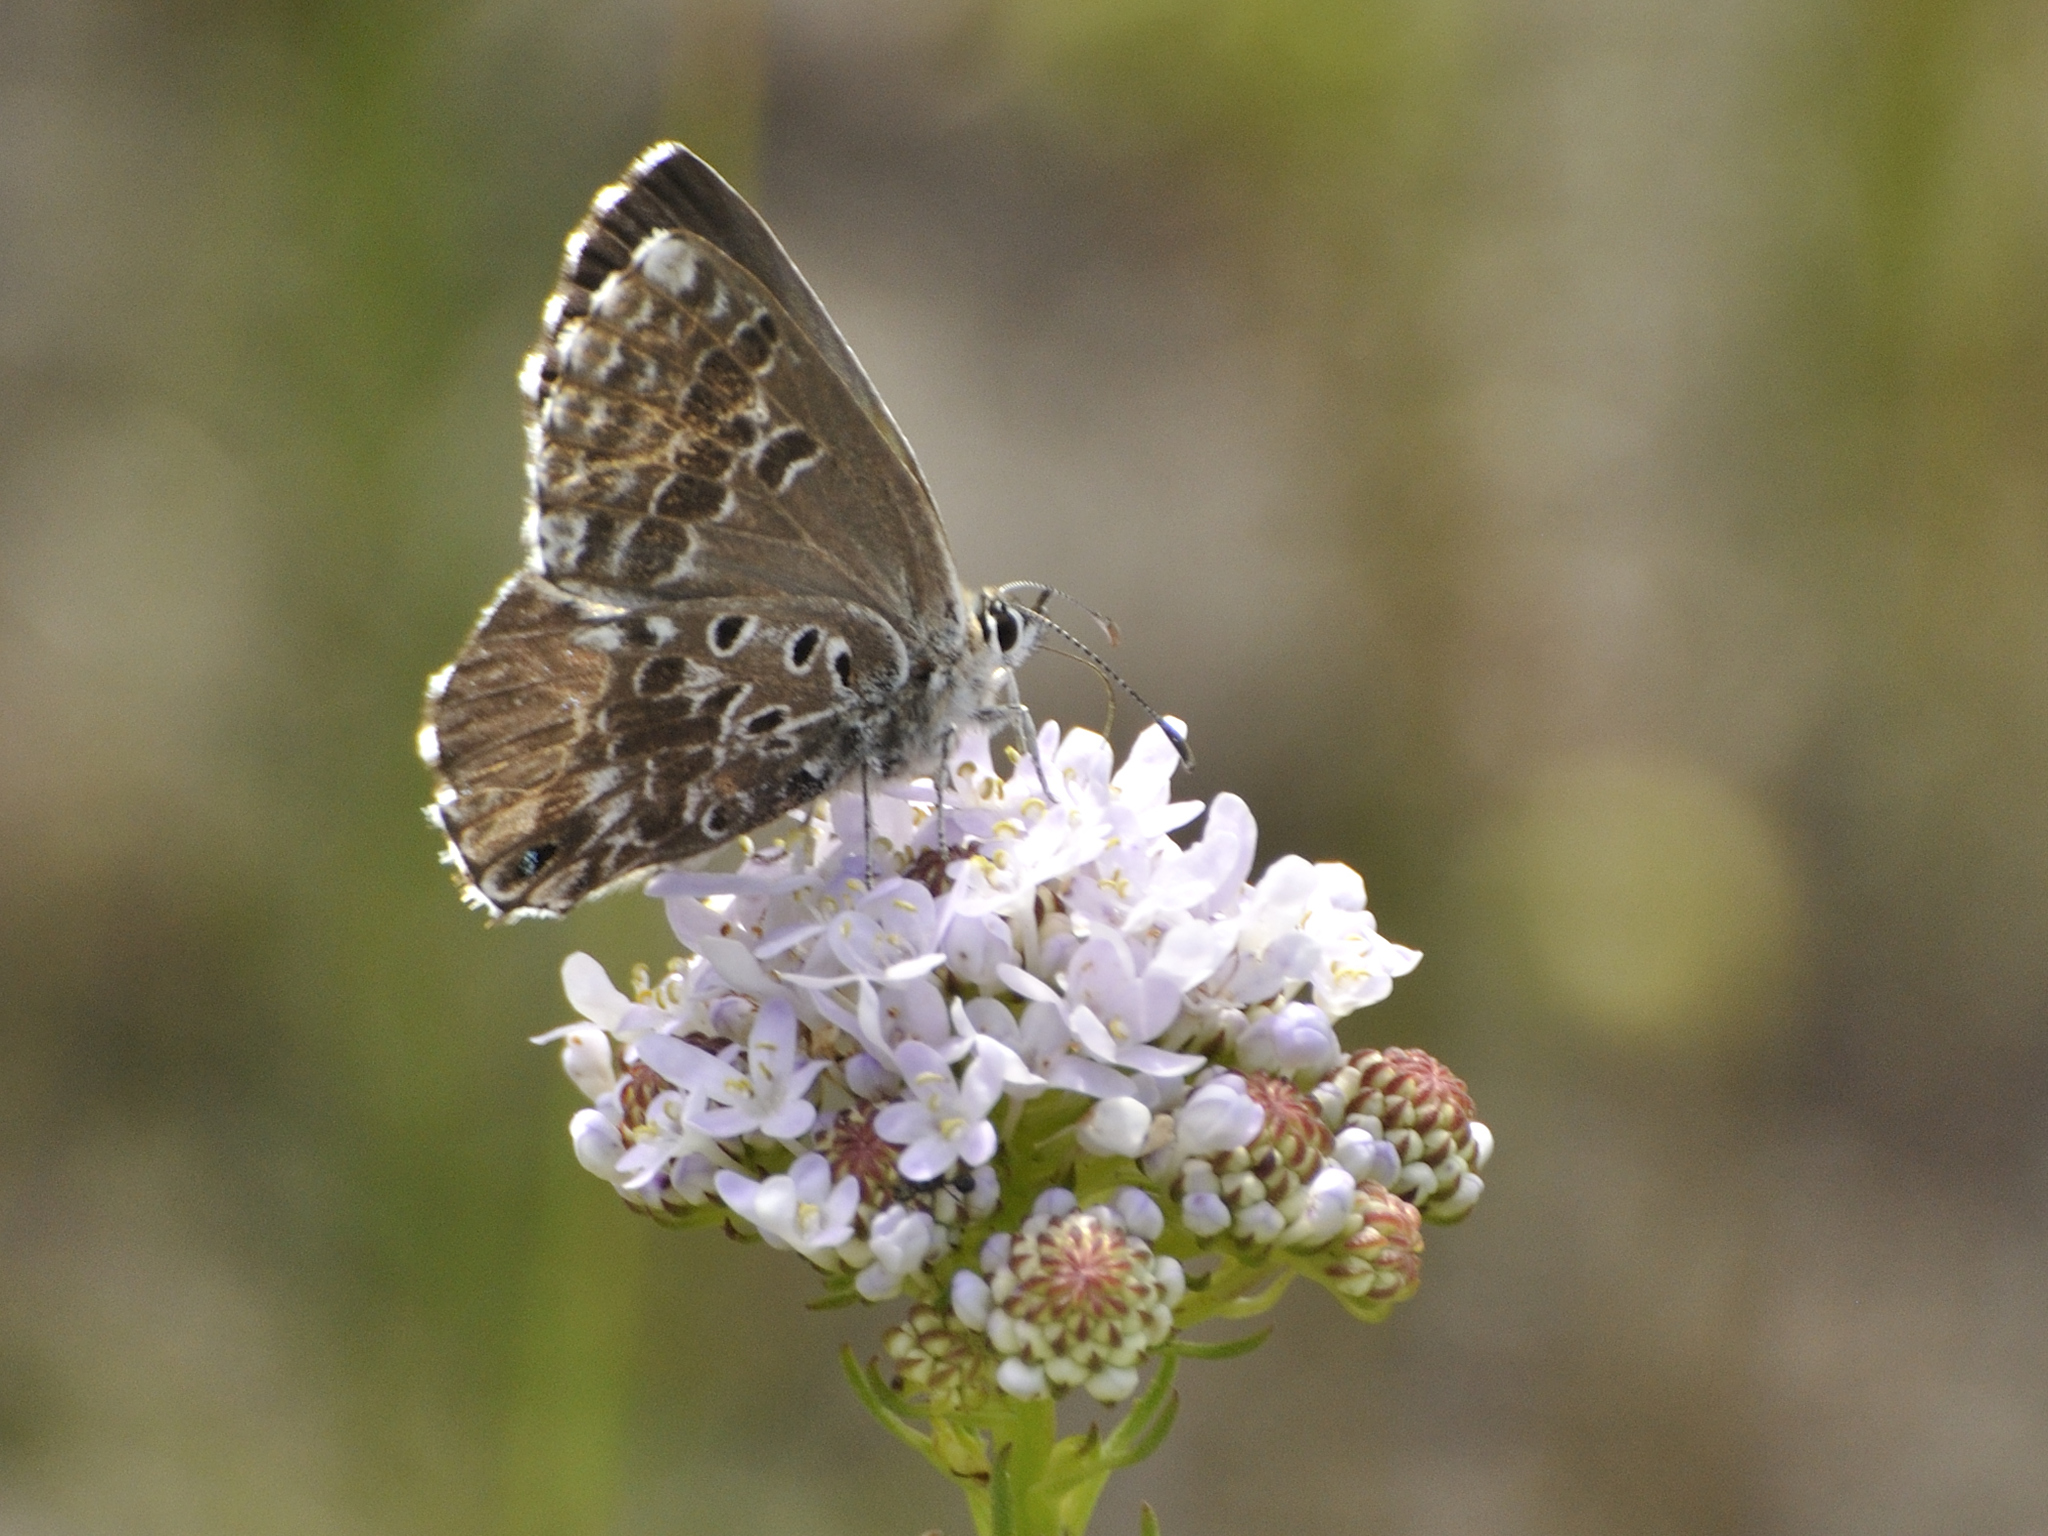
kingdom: Animalia
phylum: Arthropoda
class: Insecta
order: Lepidoptera
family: Lycaenidae
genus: Lepidochrysops
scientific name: Lepidochrysops methymna
